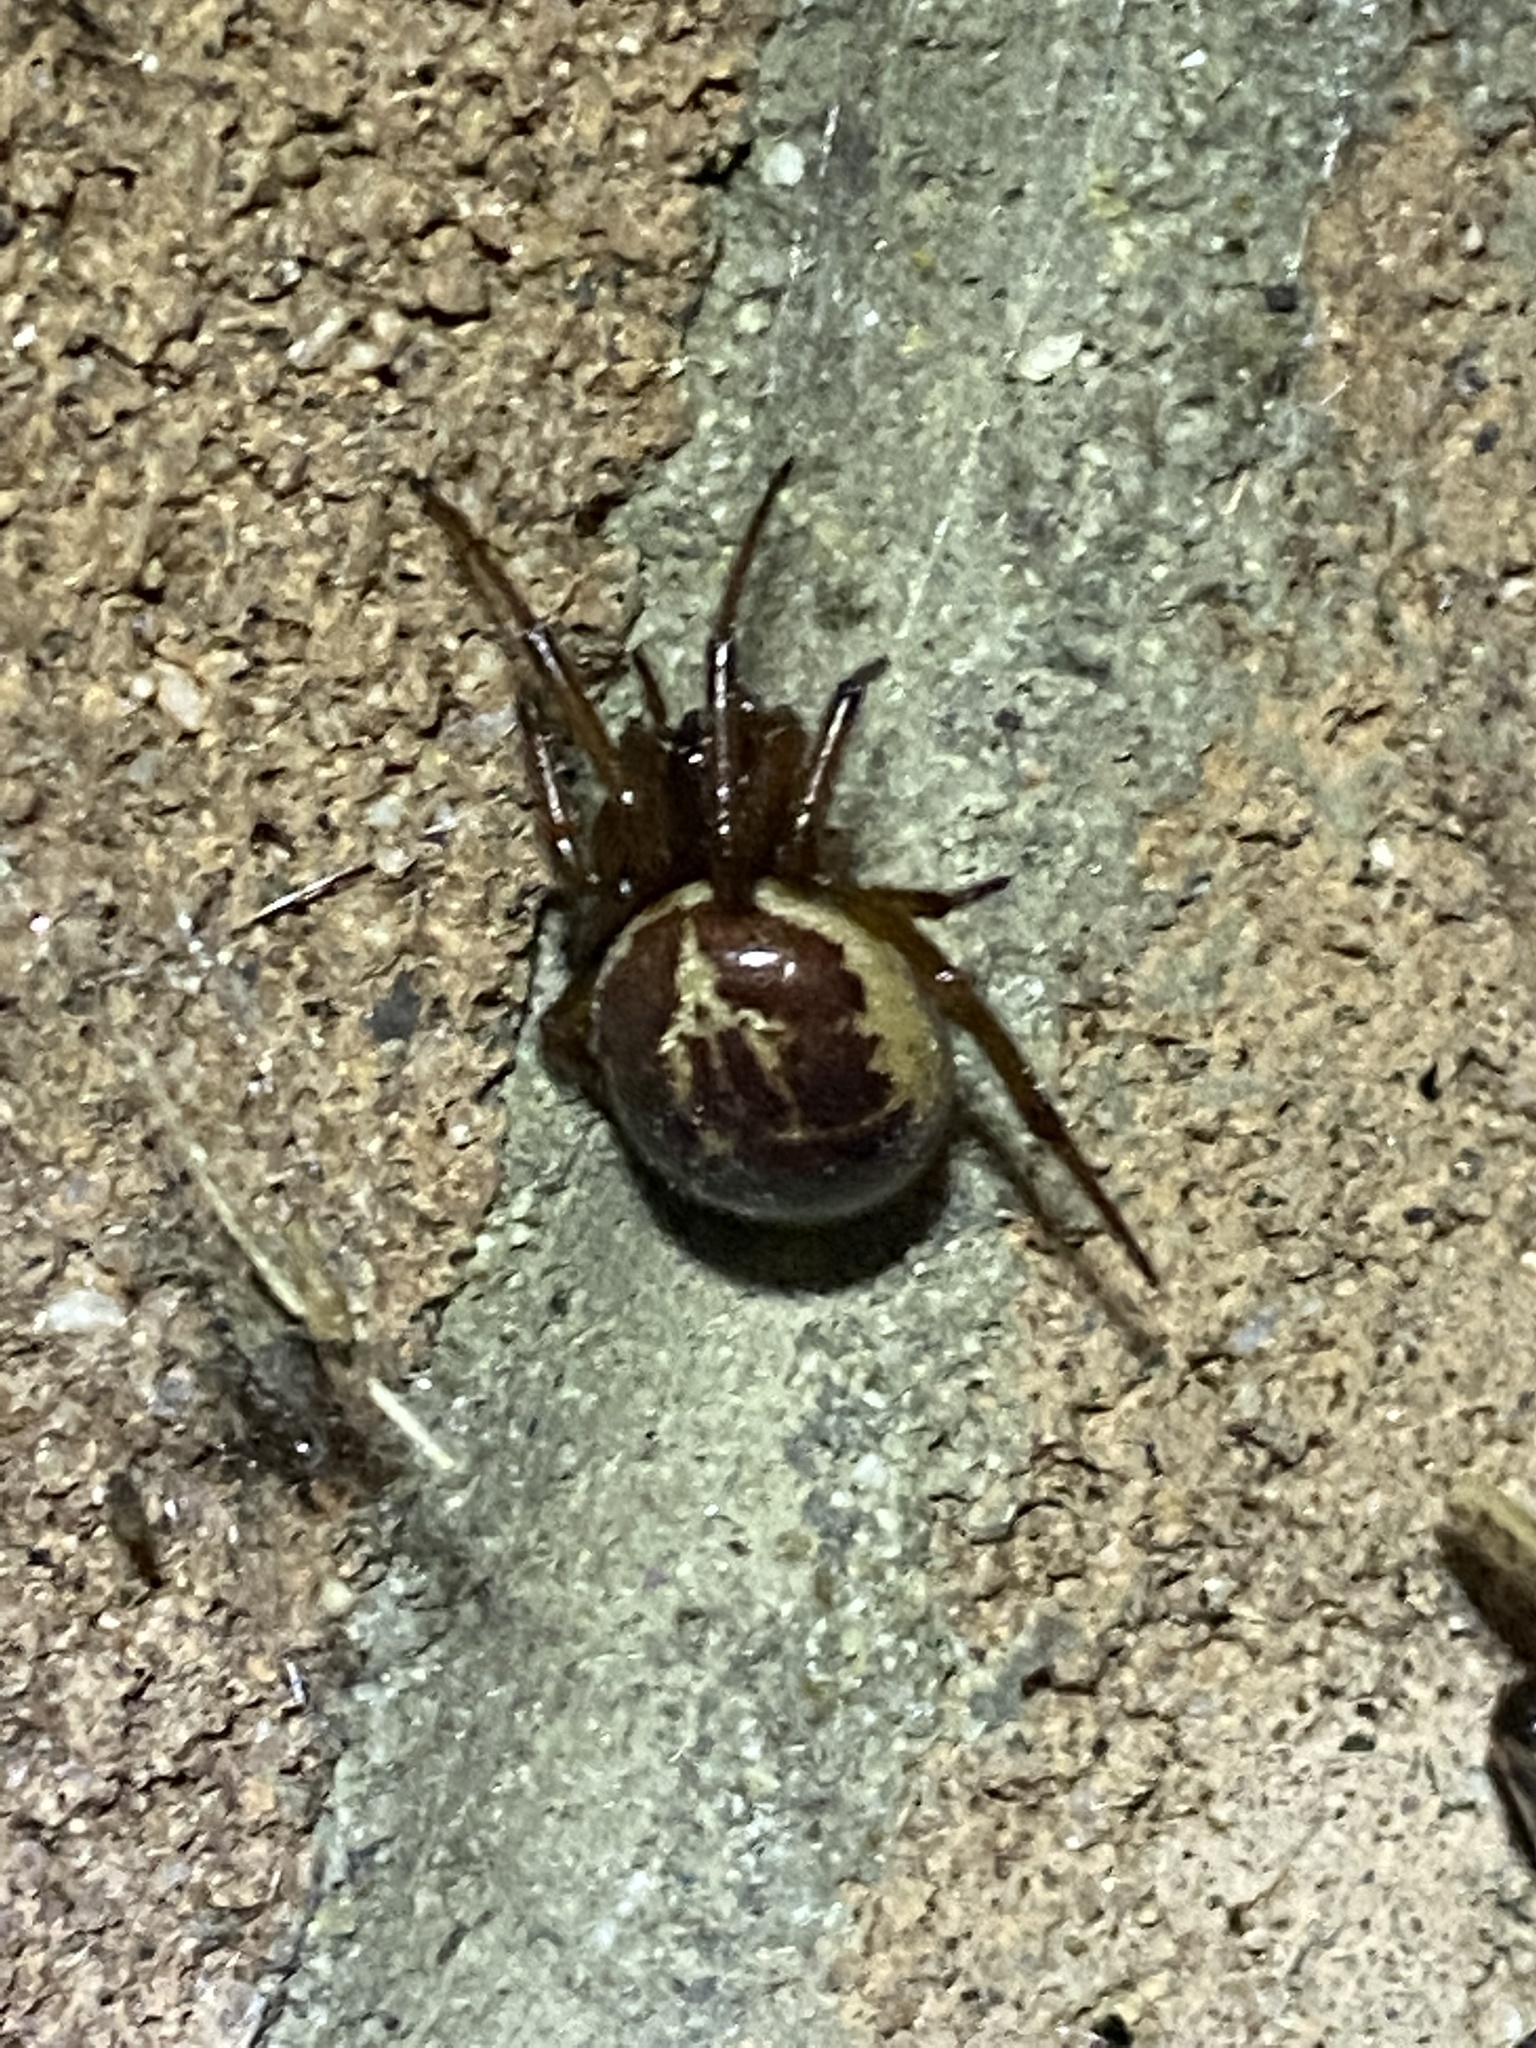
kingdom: Animalia
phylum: Arthropoda
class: Arachnida
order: Araneae
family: Theridiidae
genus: Steatoda
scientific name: Steatoda nobilis
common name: Cobweb weaver
